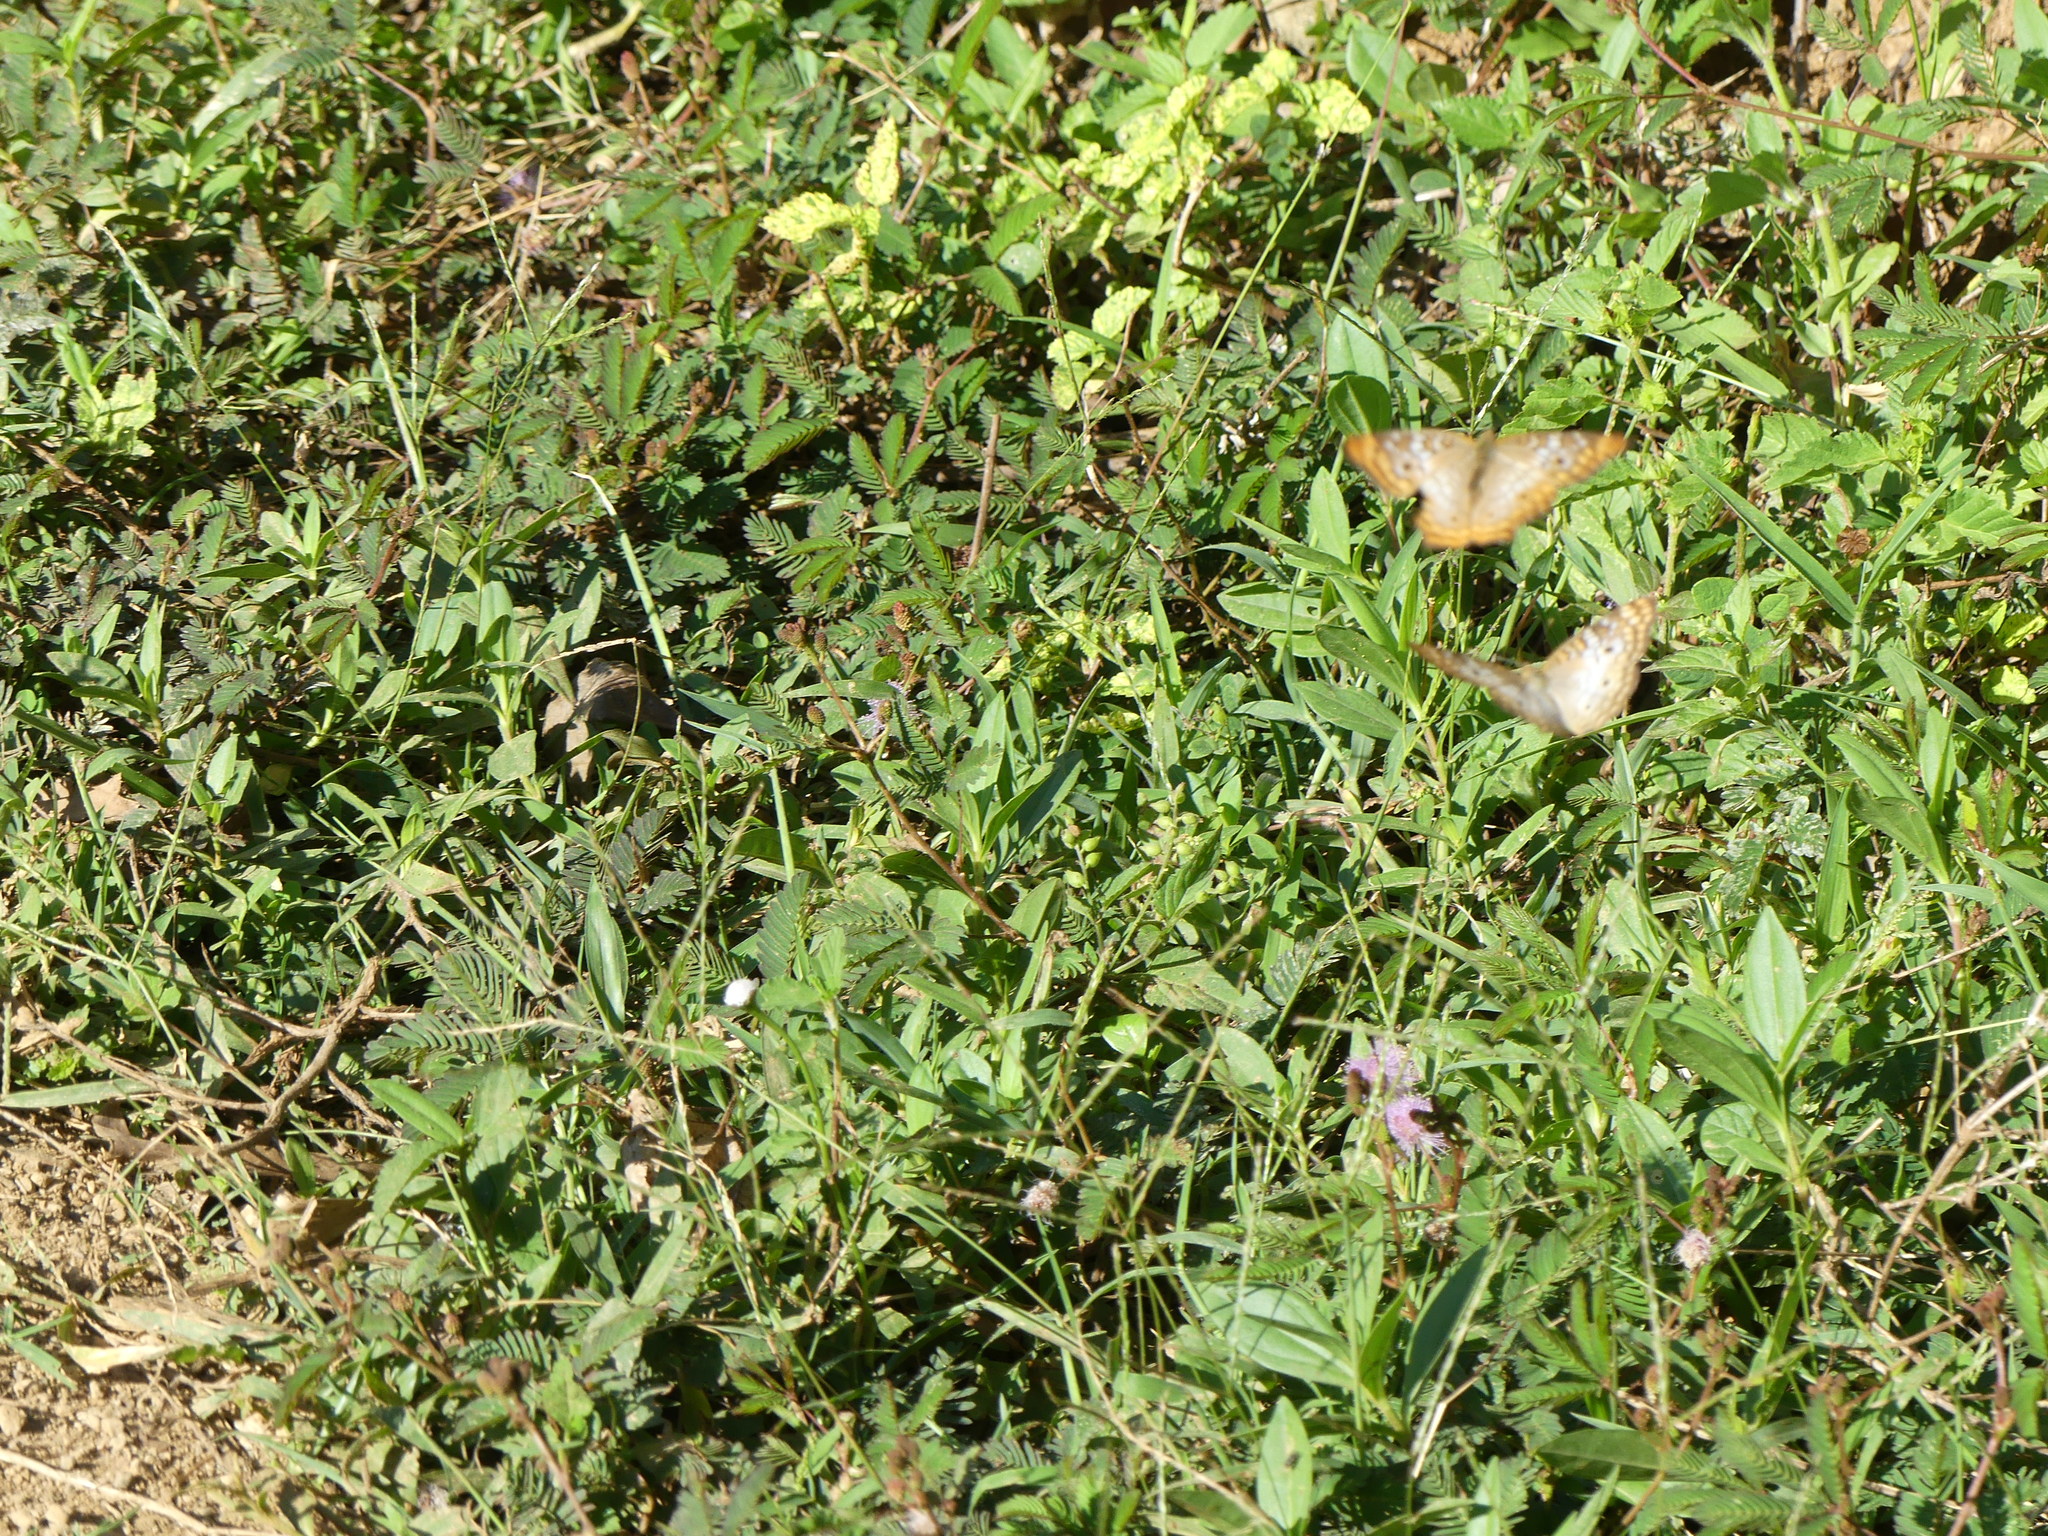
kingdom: Animalia
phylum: Arthropoda
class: Insecta
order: Lepidoptera
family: Nymphalidae
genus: Anartia
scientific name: Anartia jatrophae
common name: White peacock
